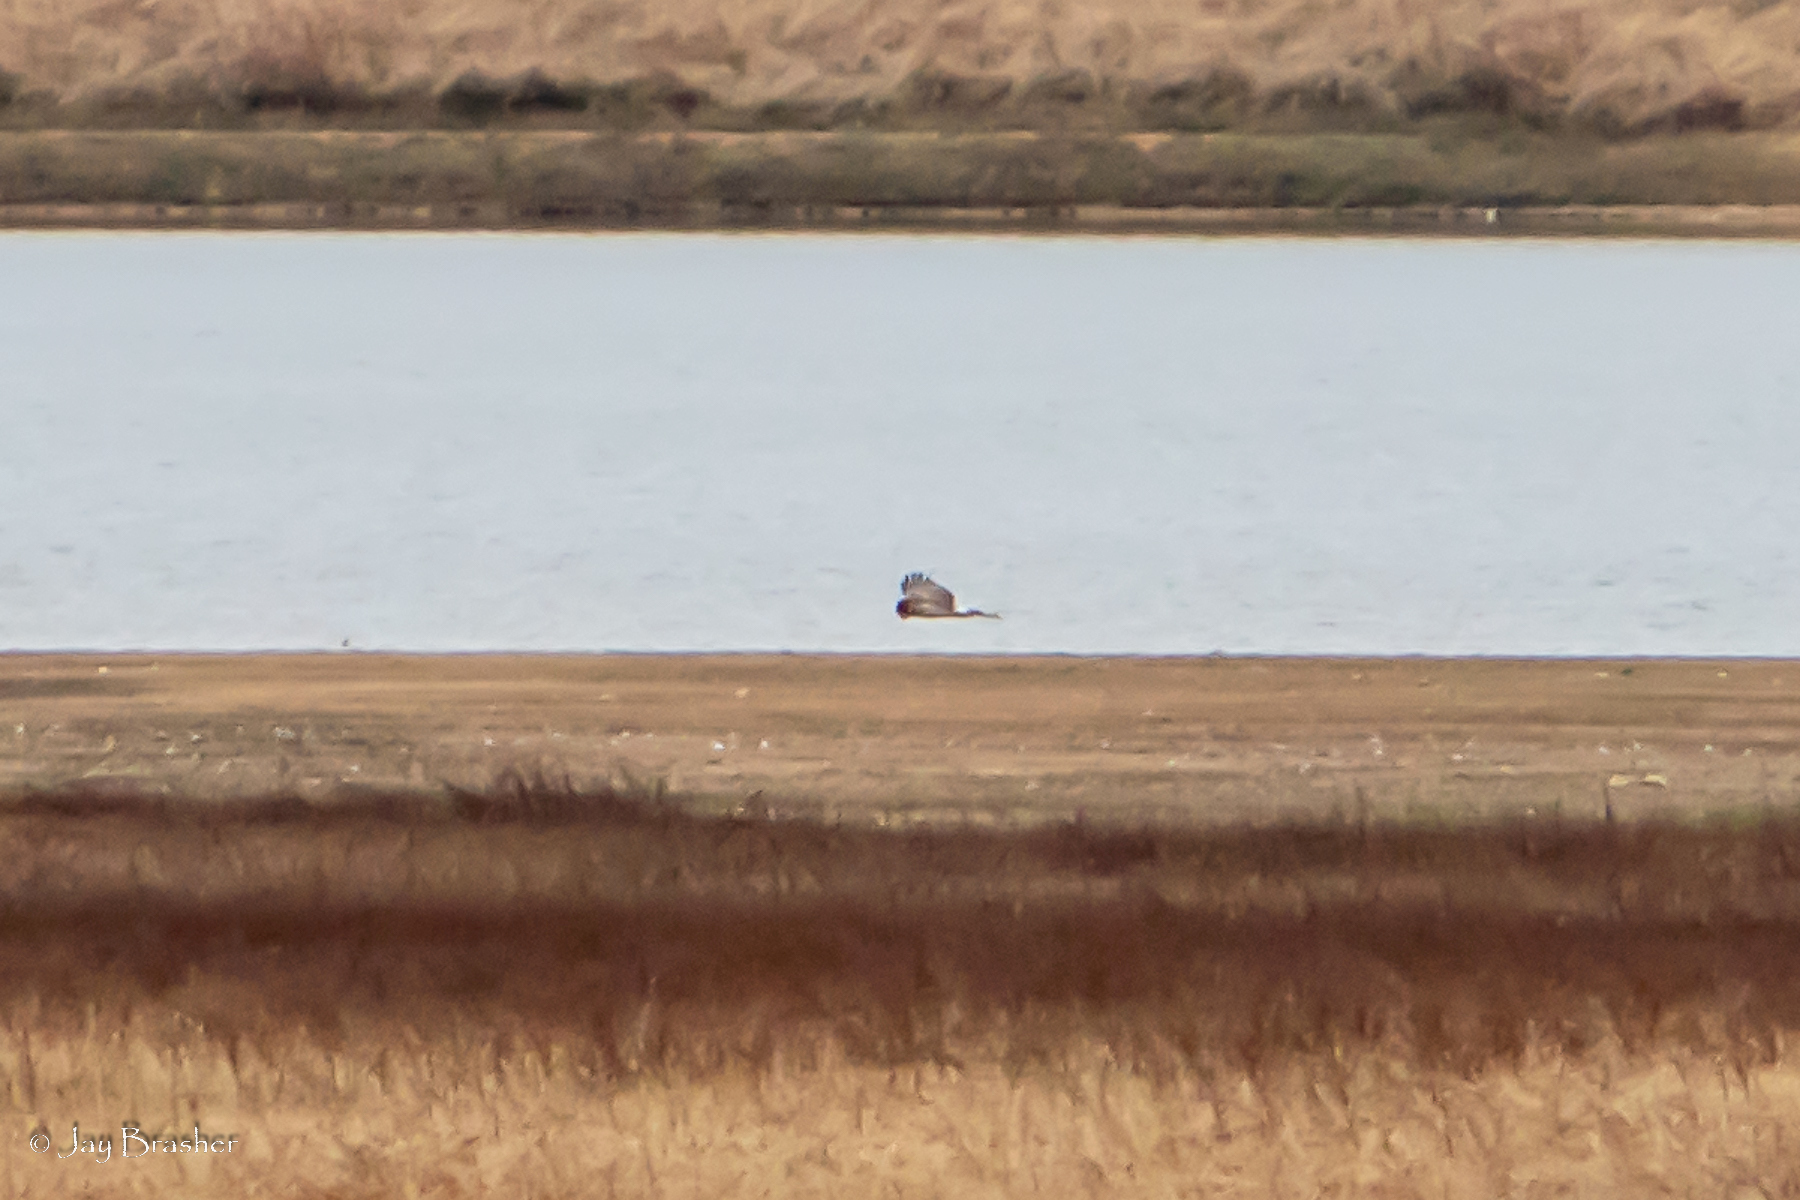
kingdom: Animalia
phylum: Chordata
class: Aves
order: Accipitriformes
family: Accipitridae
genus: Circus
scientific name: Circus cyaneus
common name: Hen harrier
